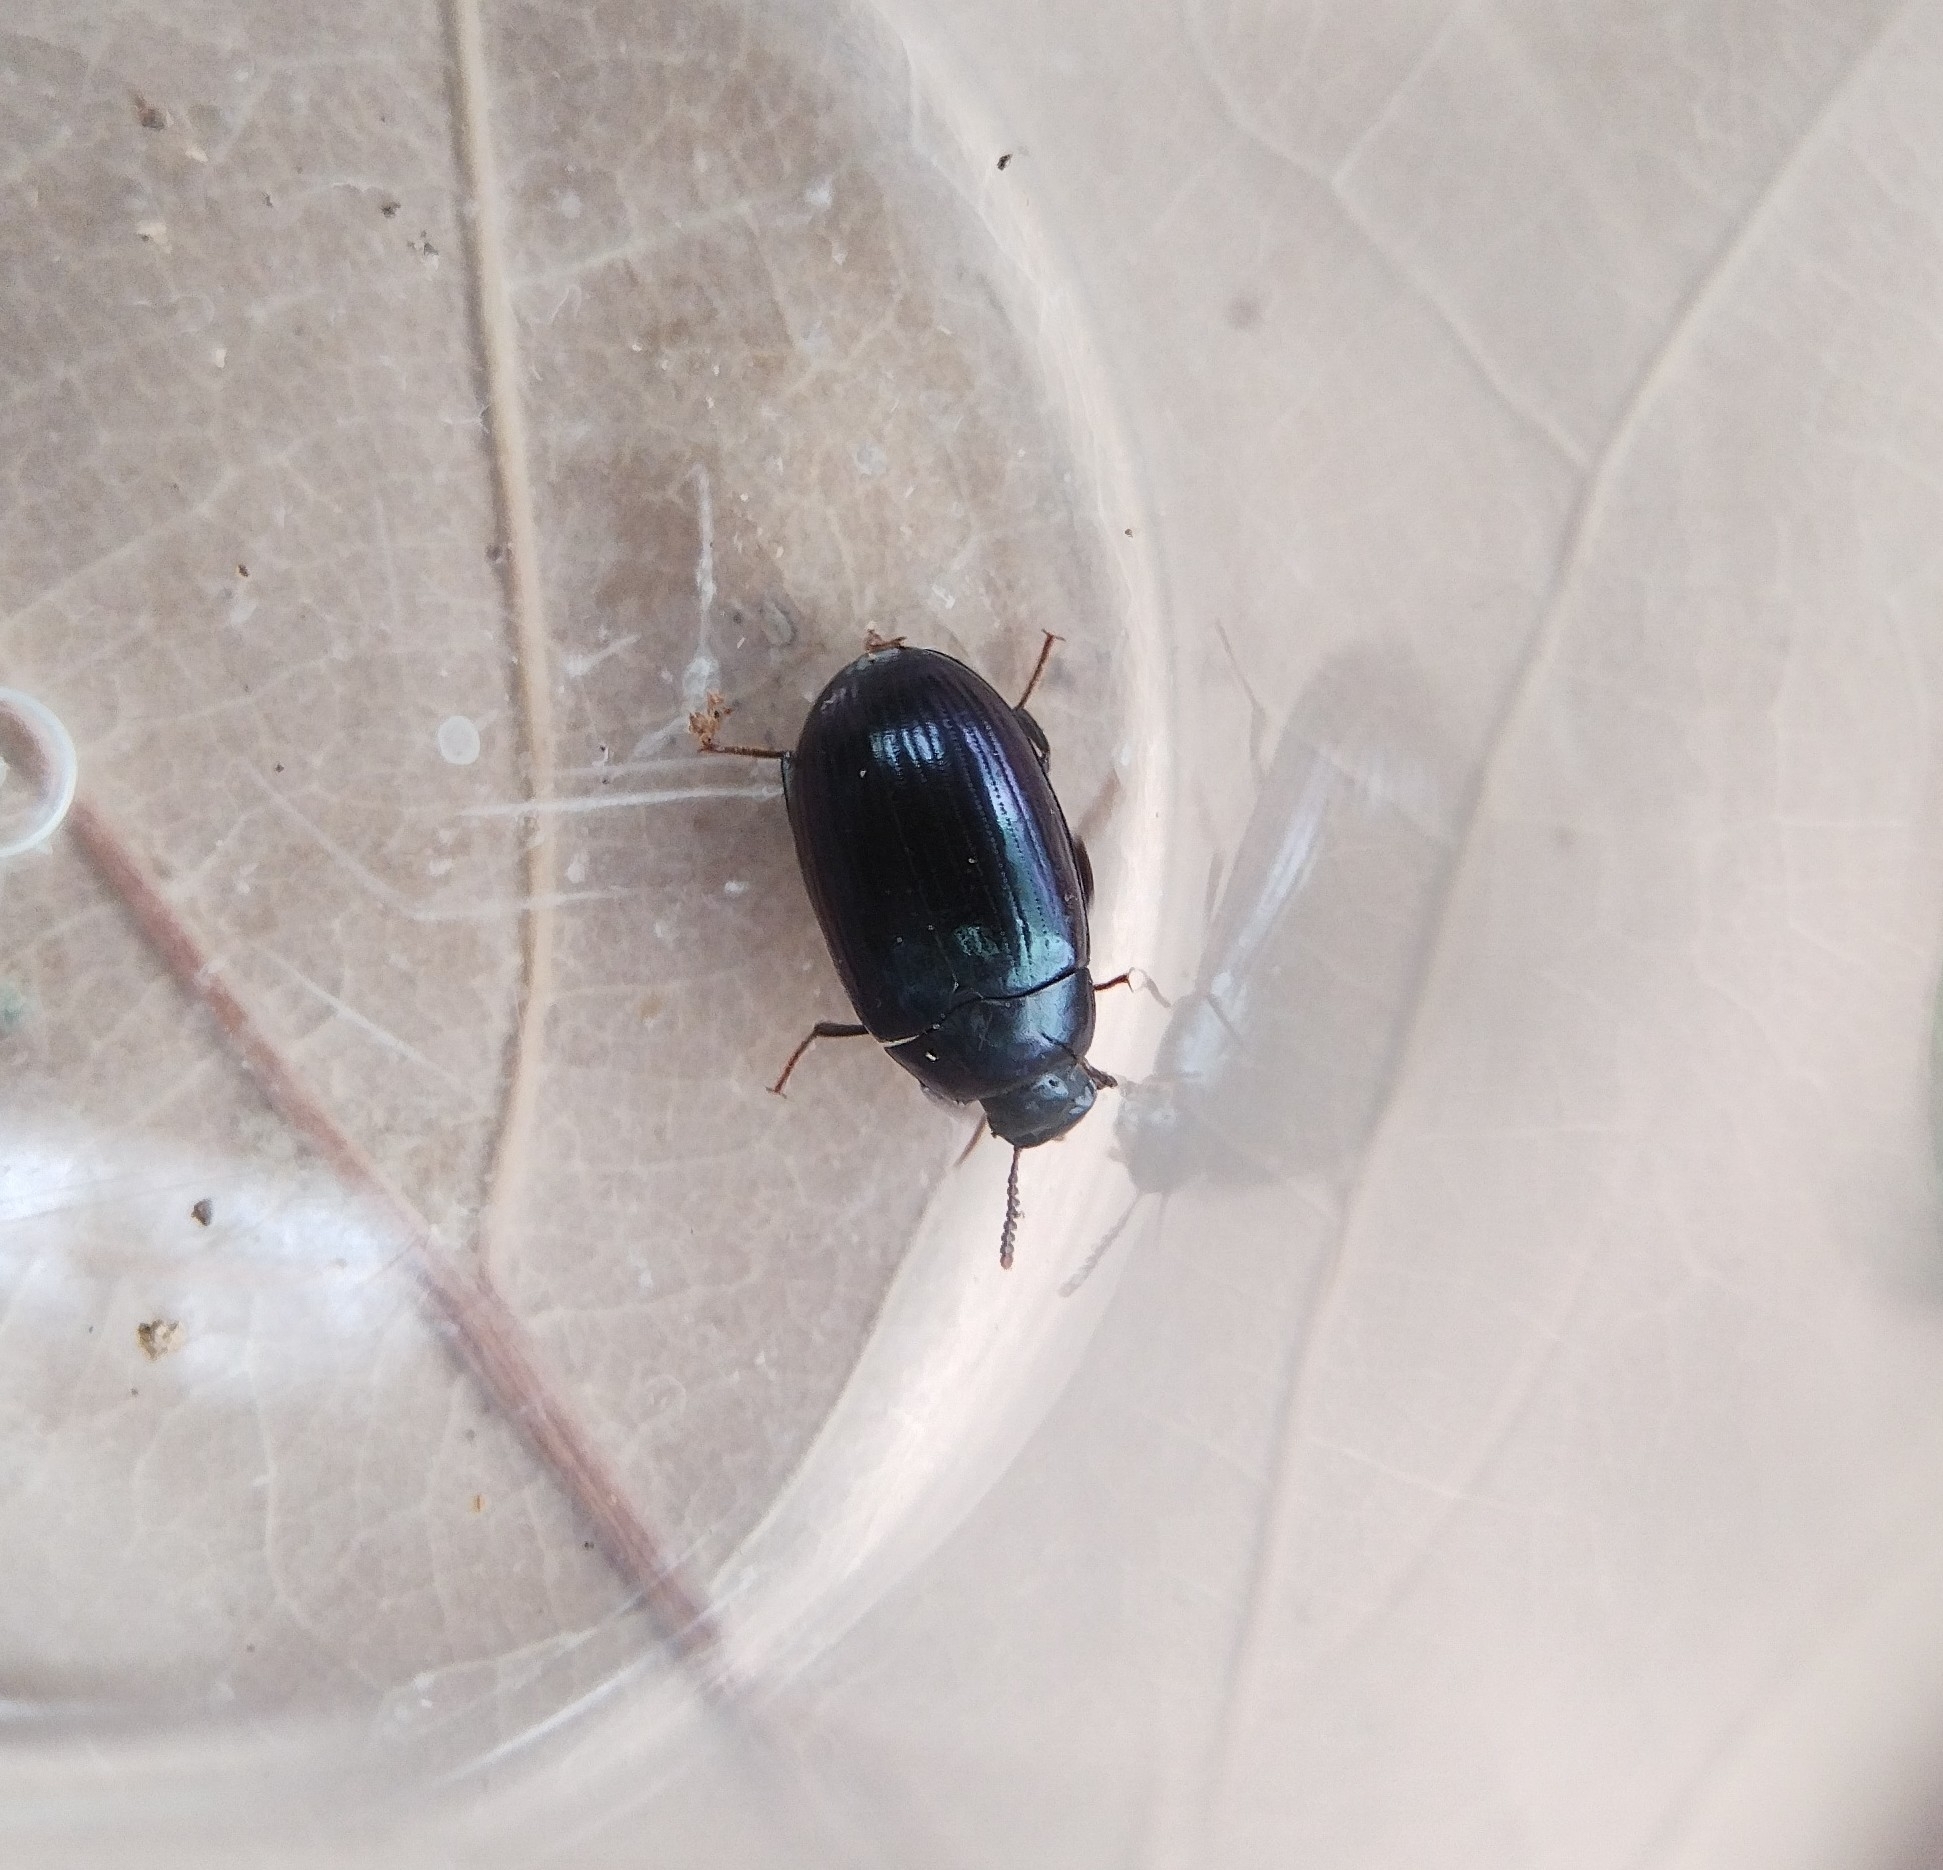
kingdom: Animalia
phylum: Arthropoda
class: Insecta
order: Coleoptera
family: Tenebrionidae
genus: Platydema
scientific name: Platydema violaceum
